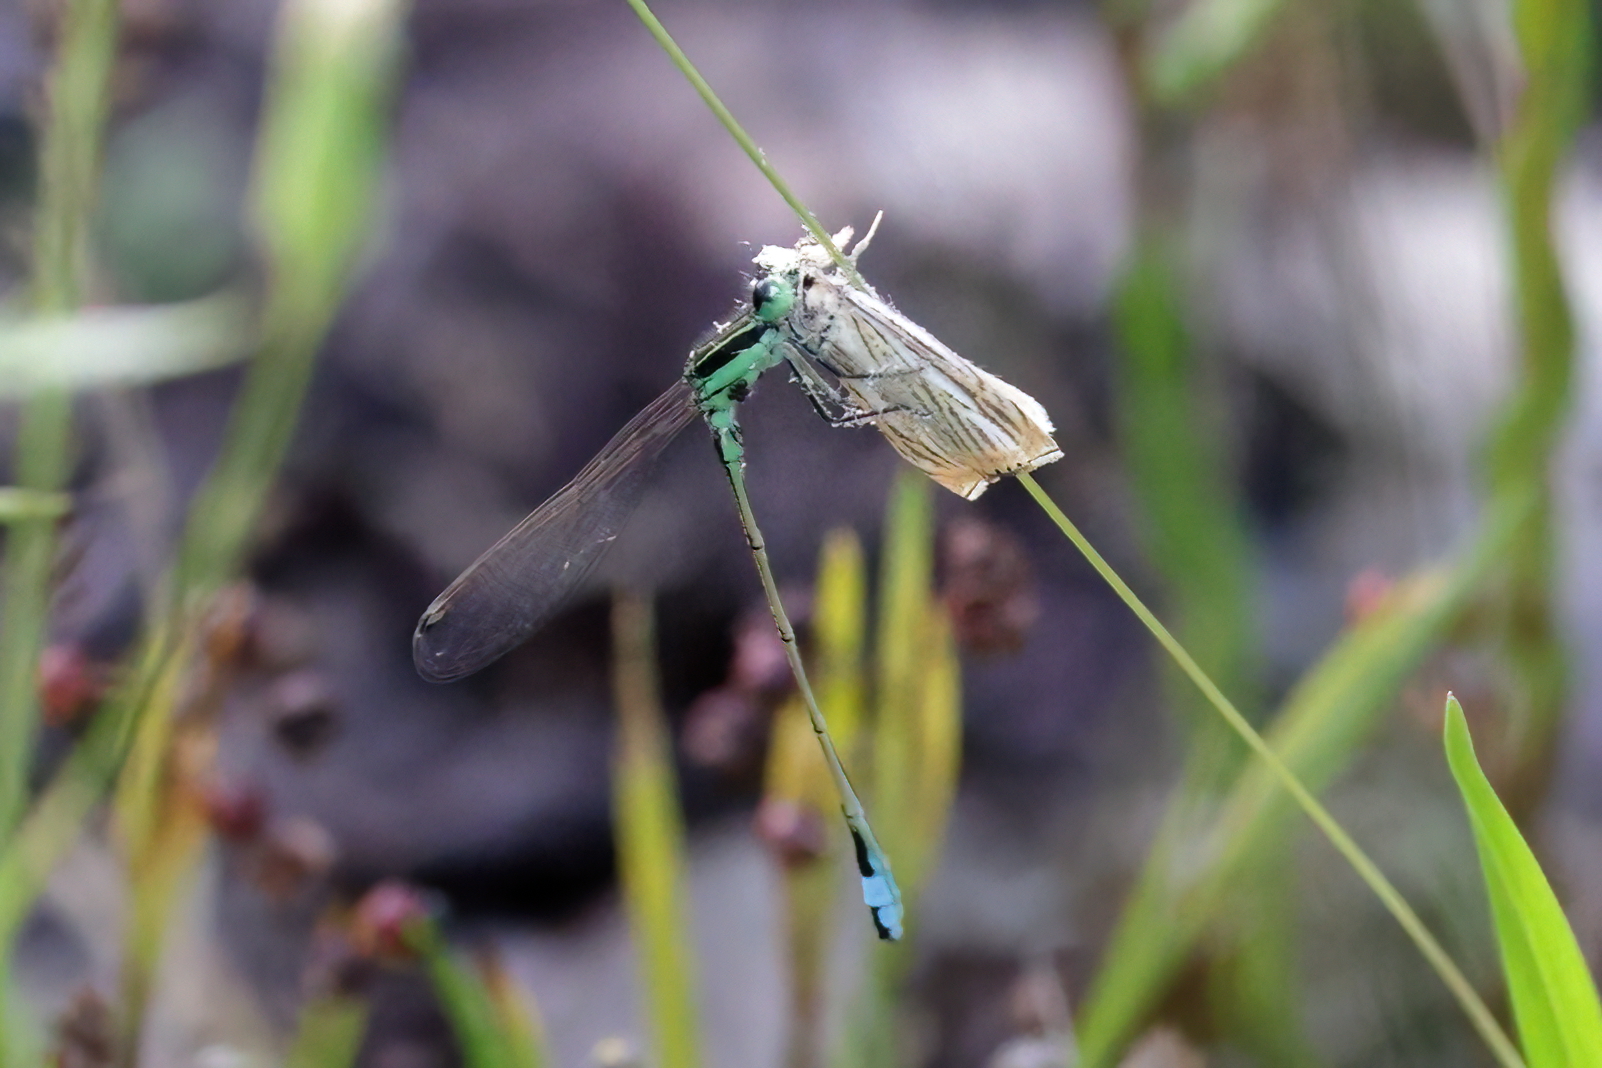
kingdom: Animalia
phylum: Arthropoda
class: Insecta
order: Odonata
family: Coenagrionidae
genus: Ischnura
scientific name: Ischnura ramburii
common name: Rambur's forktail
